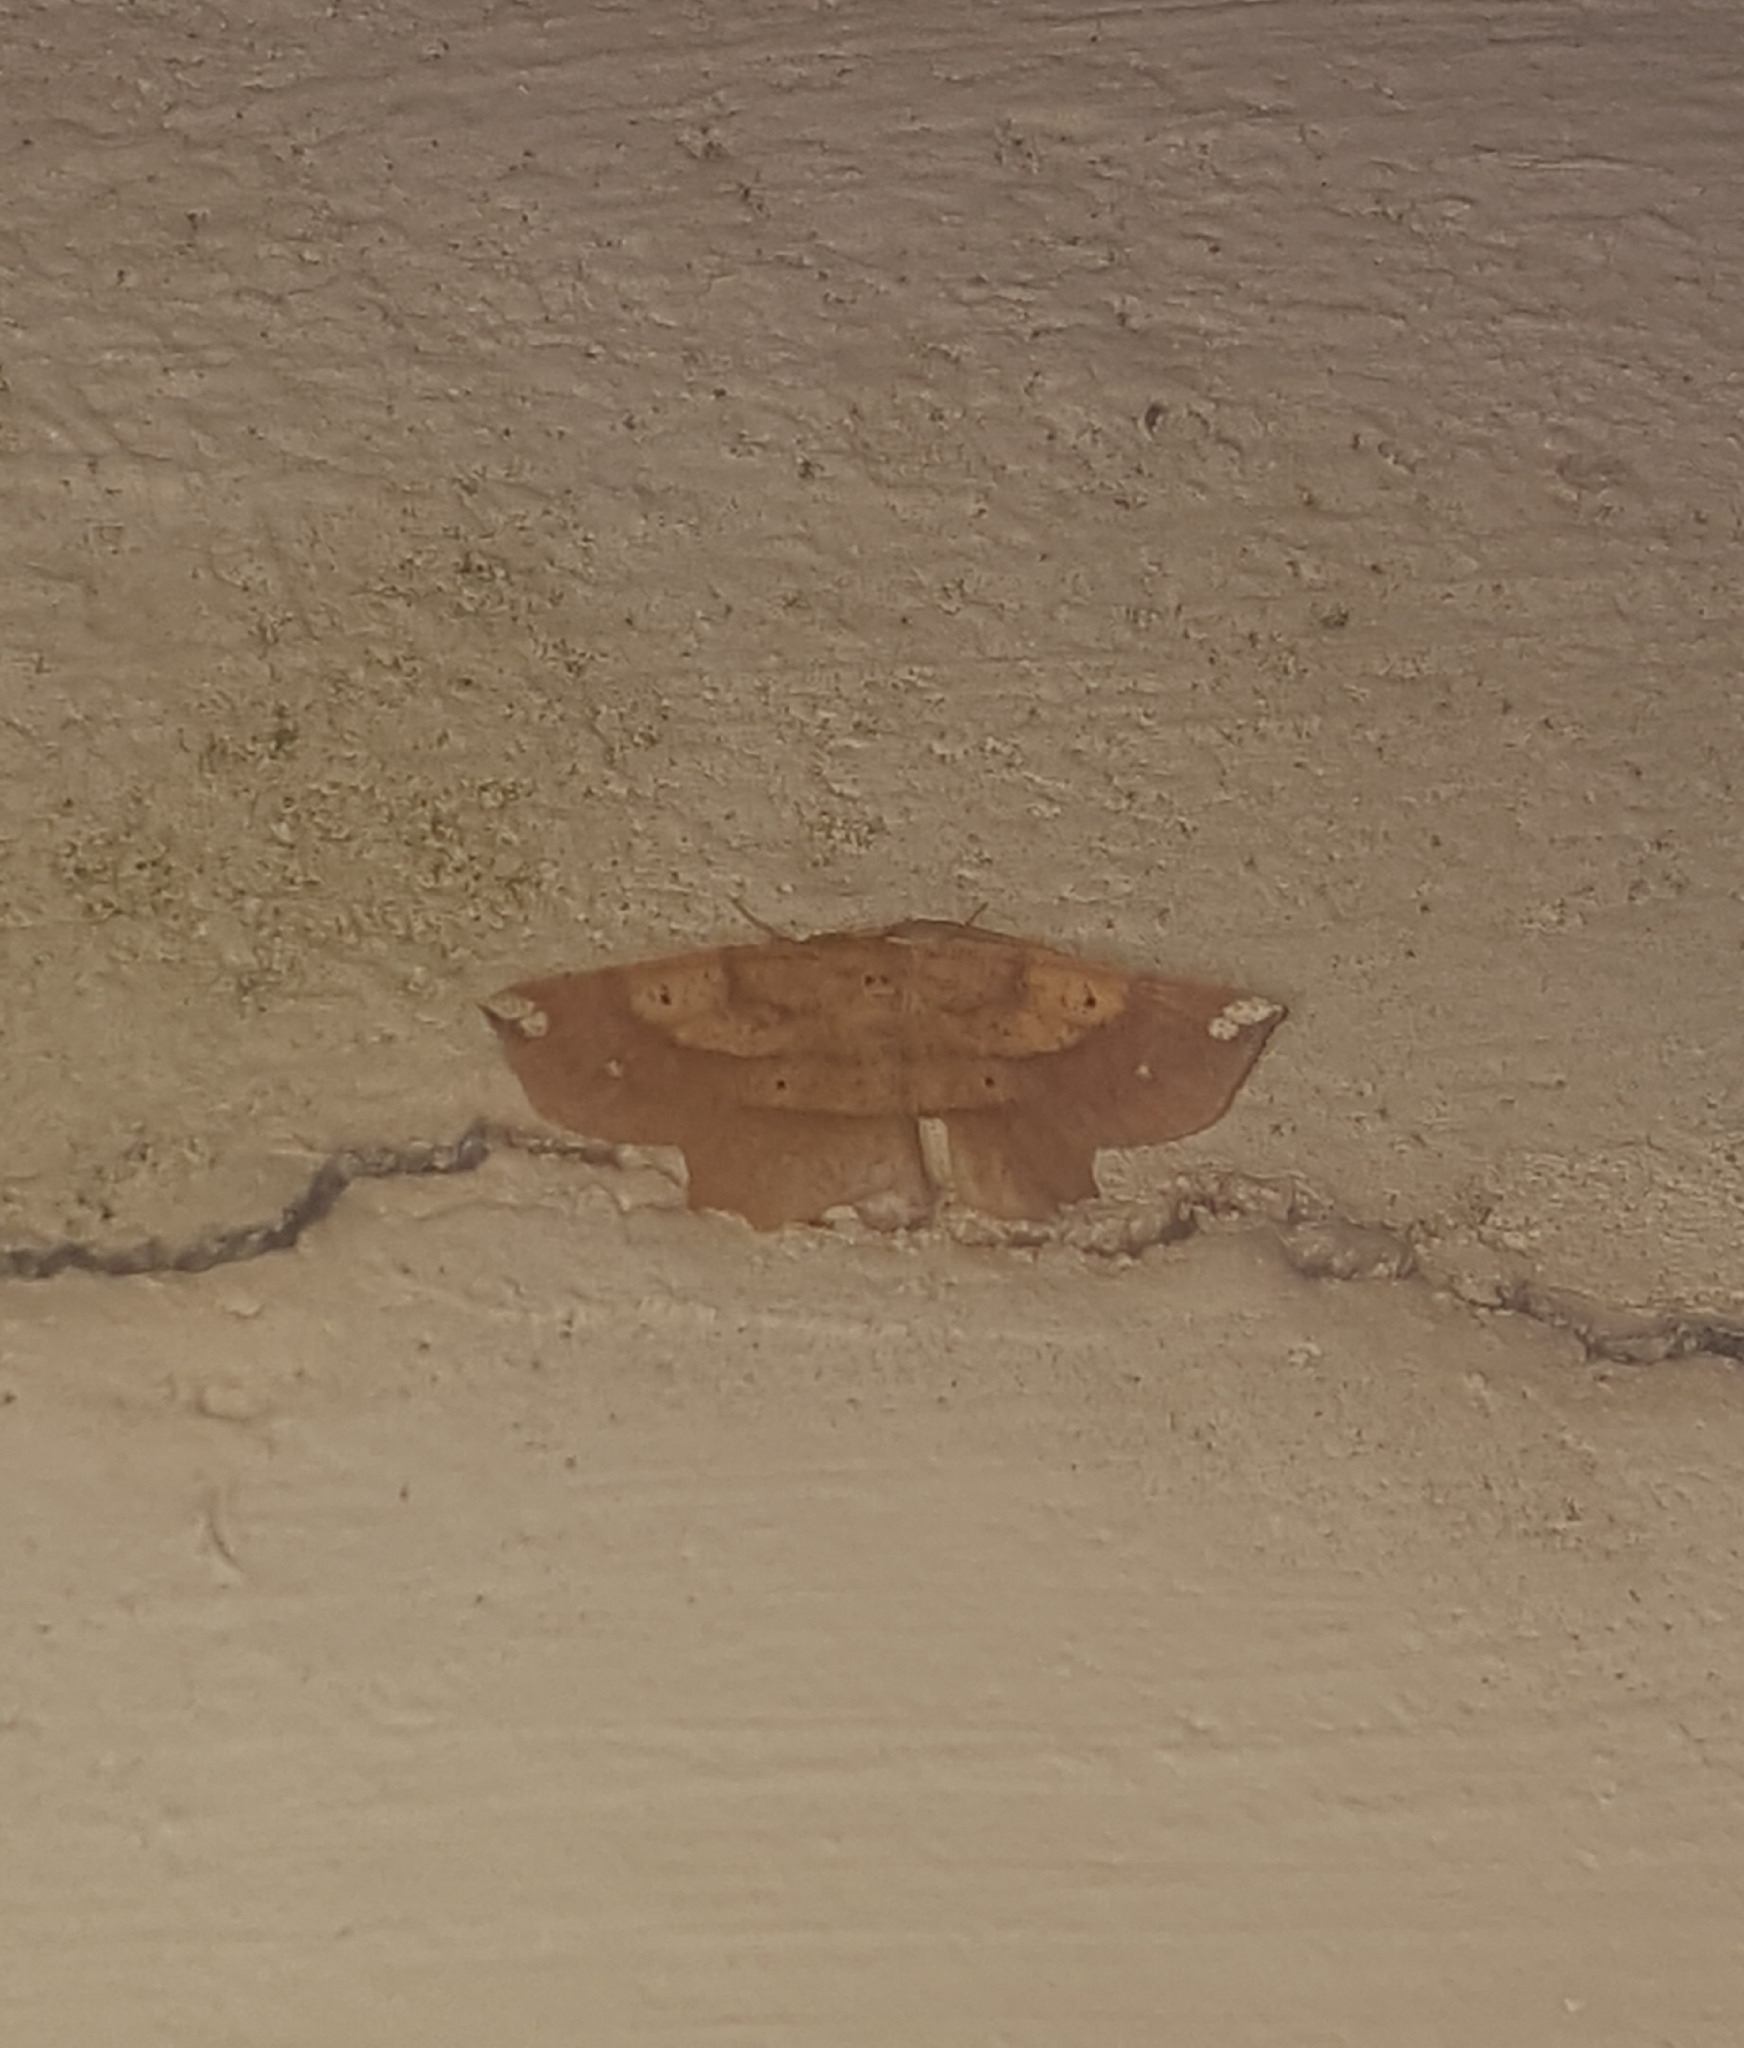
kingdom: Animalia
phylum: Arthropoda
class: Insecta
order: Lepidoptera
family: Geometridae
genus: Euchlaena
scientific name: Euchlaena amoenaria
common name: Deep yellow euchlaena
